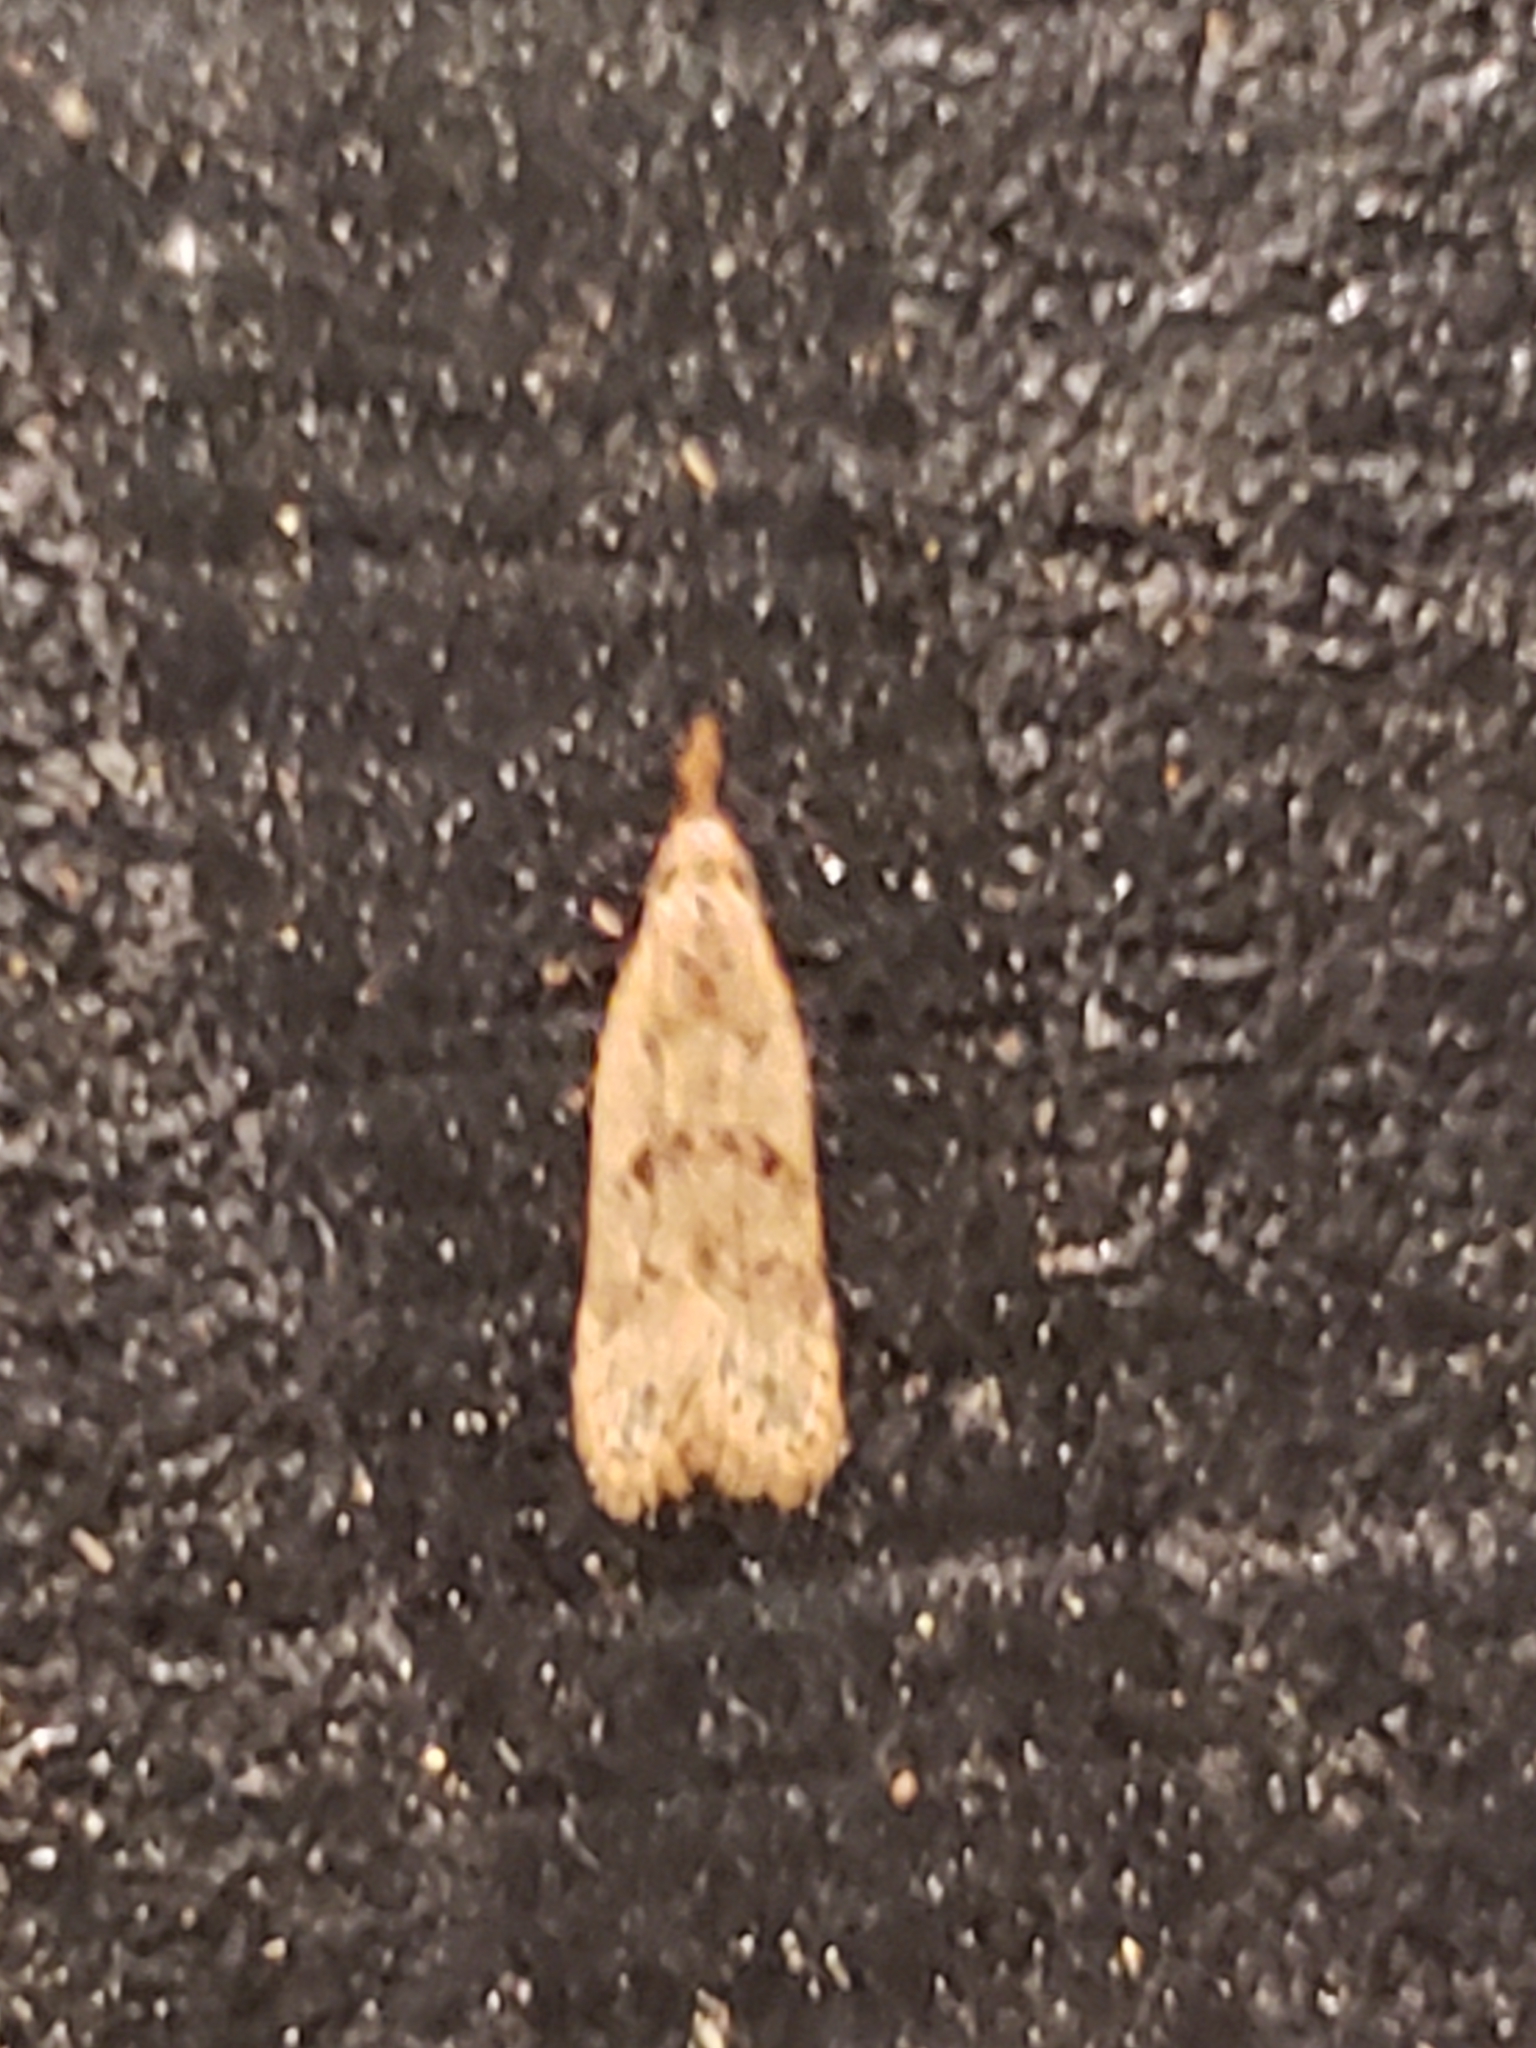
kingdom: Animalia
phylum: Arthropoda
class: Insecta
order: Lepidoptera
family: Gelechiidae
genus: Dichomeris
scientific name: Dichomeris punctipennella
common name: Many-spotted dichomeris moth
